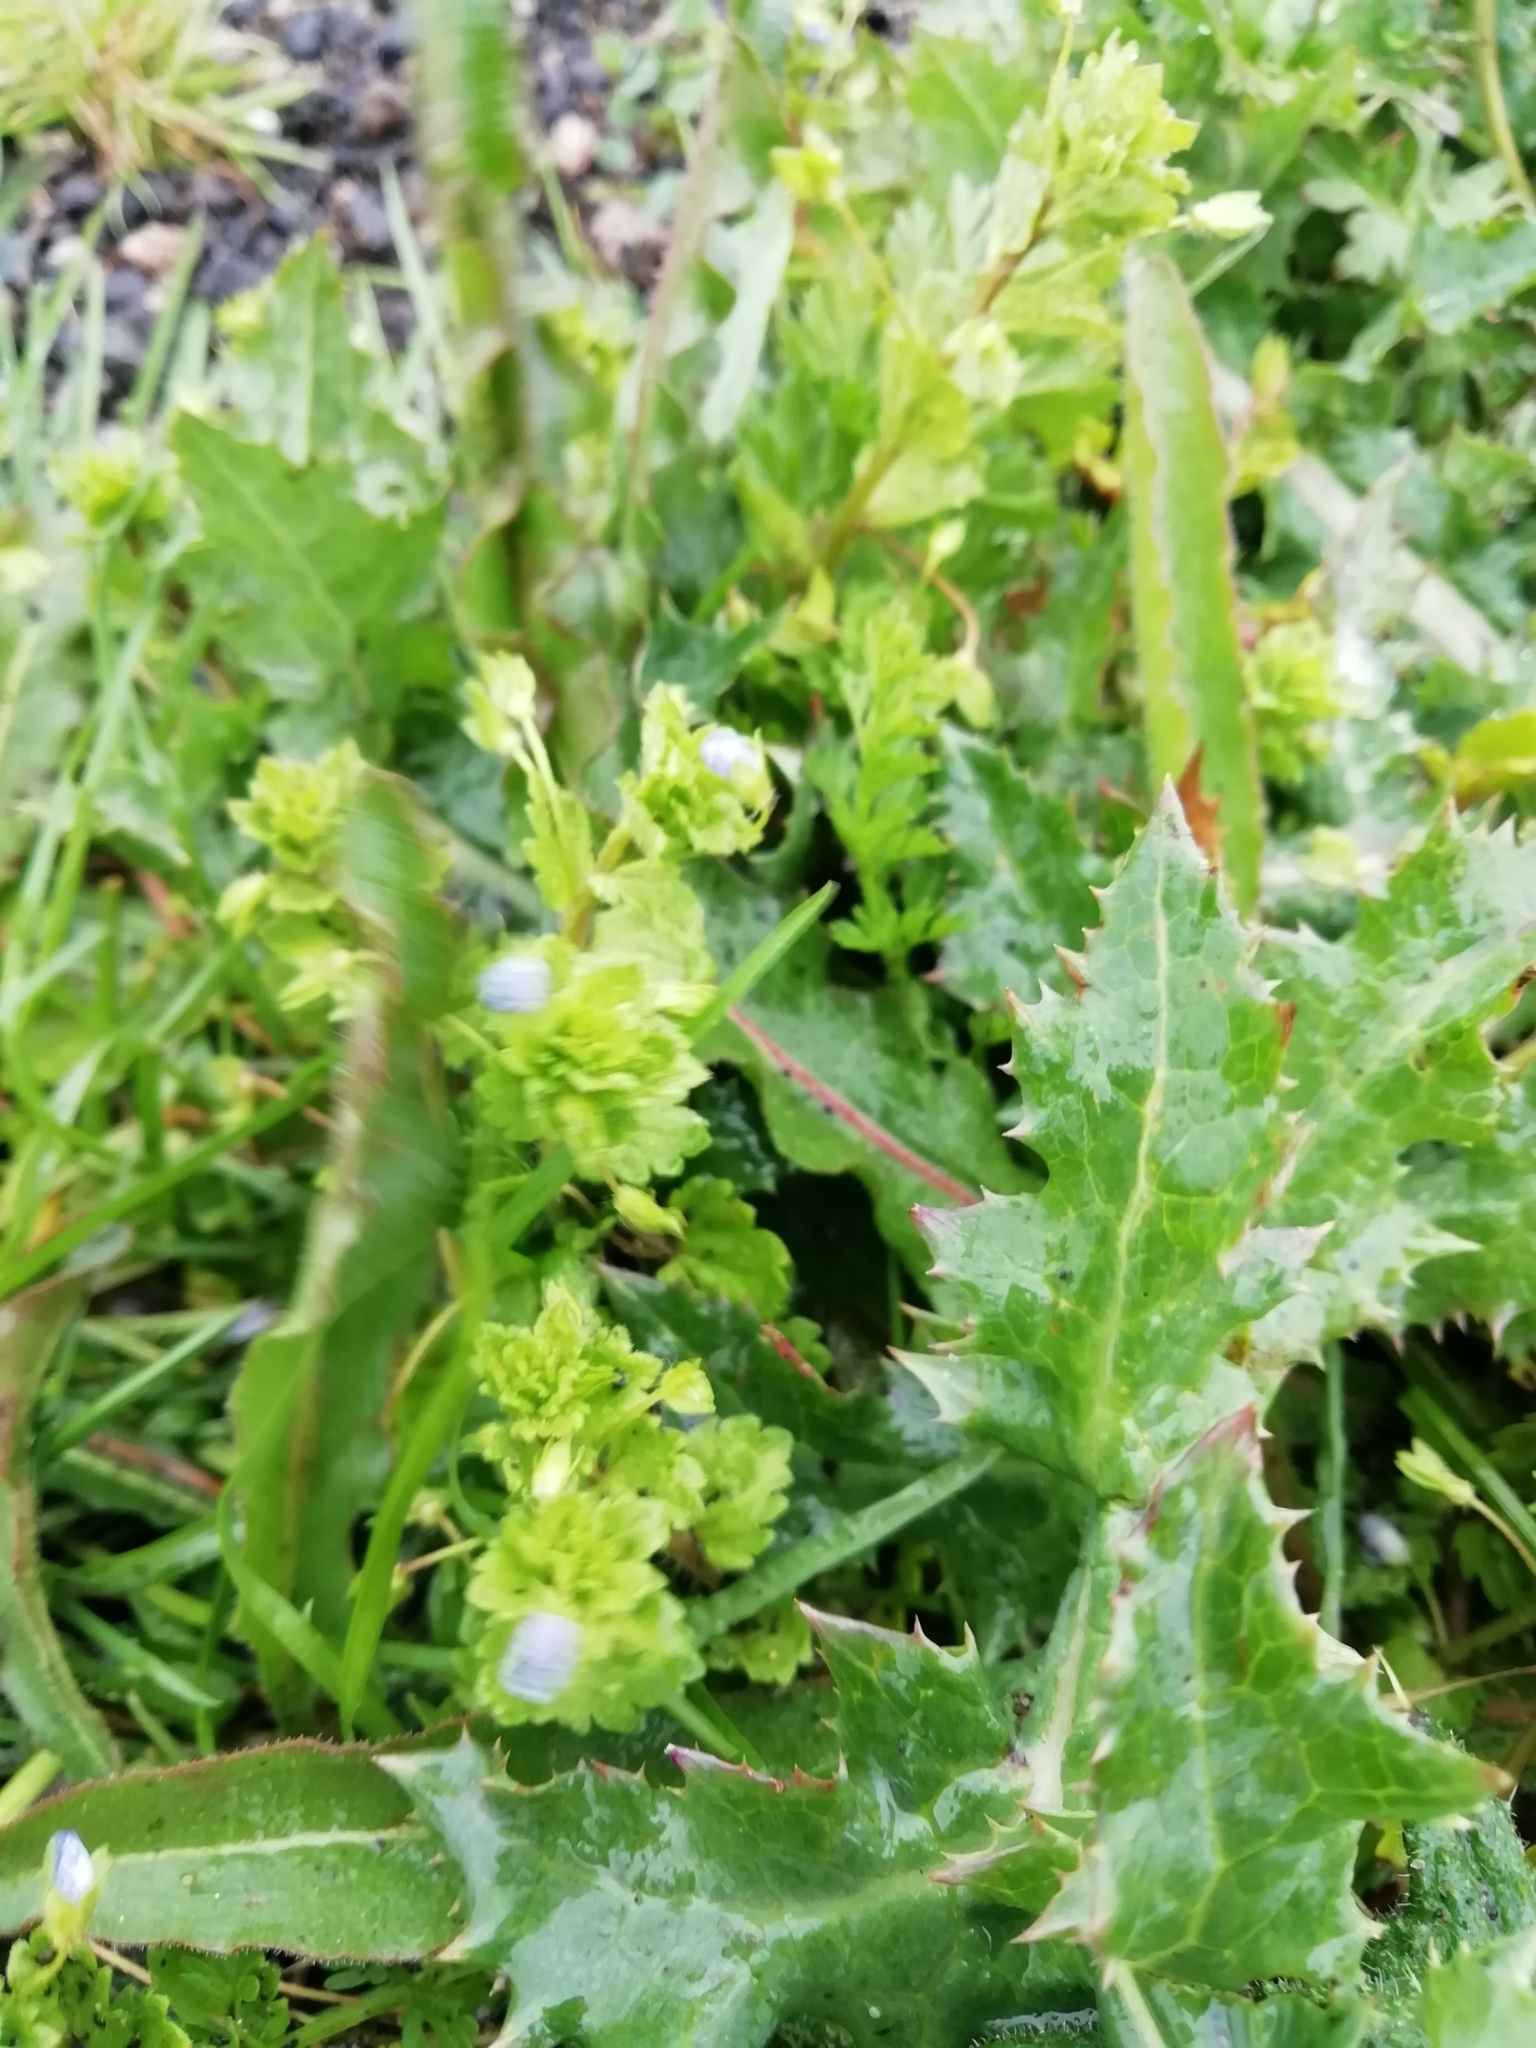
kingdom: Plantae
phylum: Tracheophyta
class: Magnoliopsida
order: Lamiales
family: Plantaginaceae
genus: Veronica
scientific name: Veronica persica
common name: Common field-speedwell
